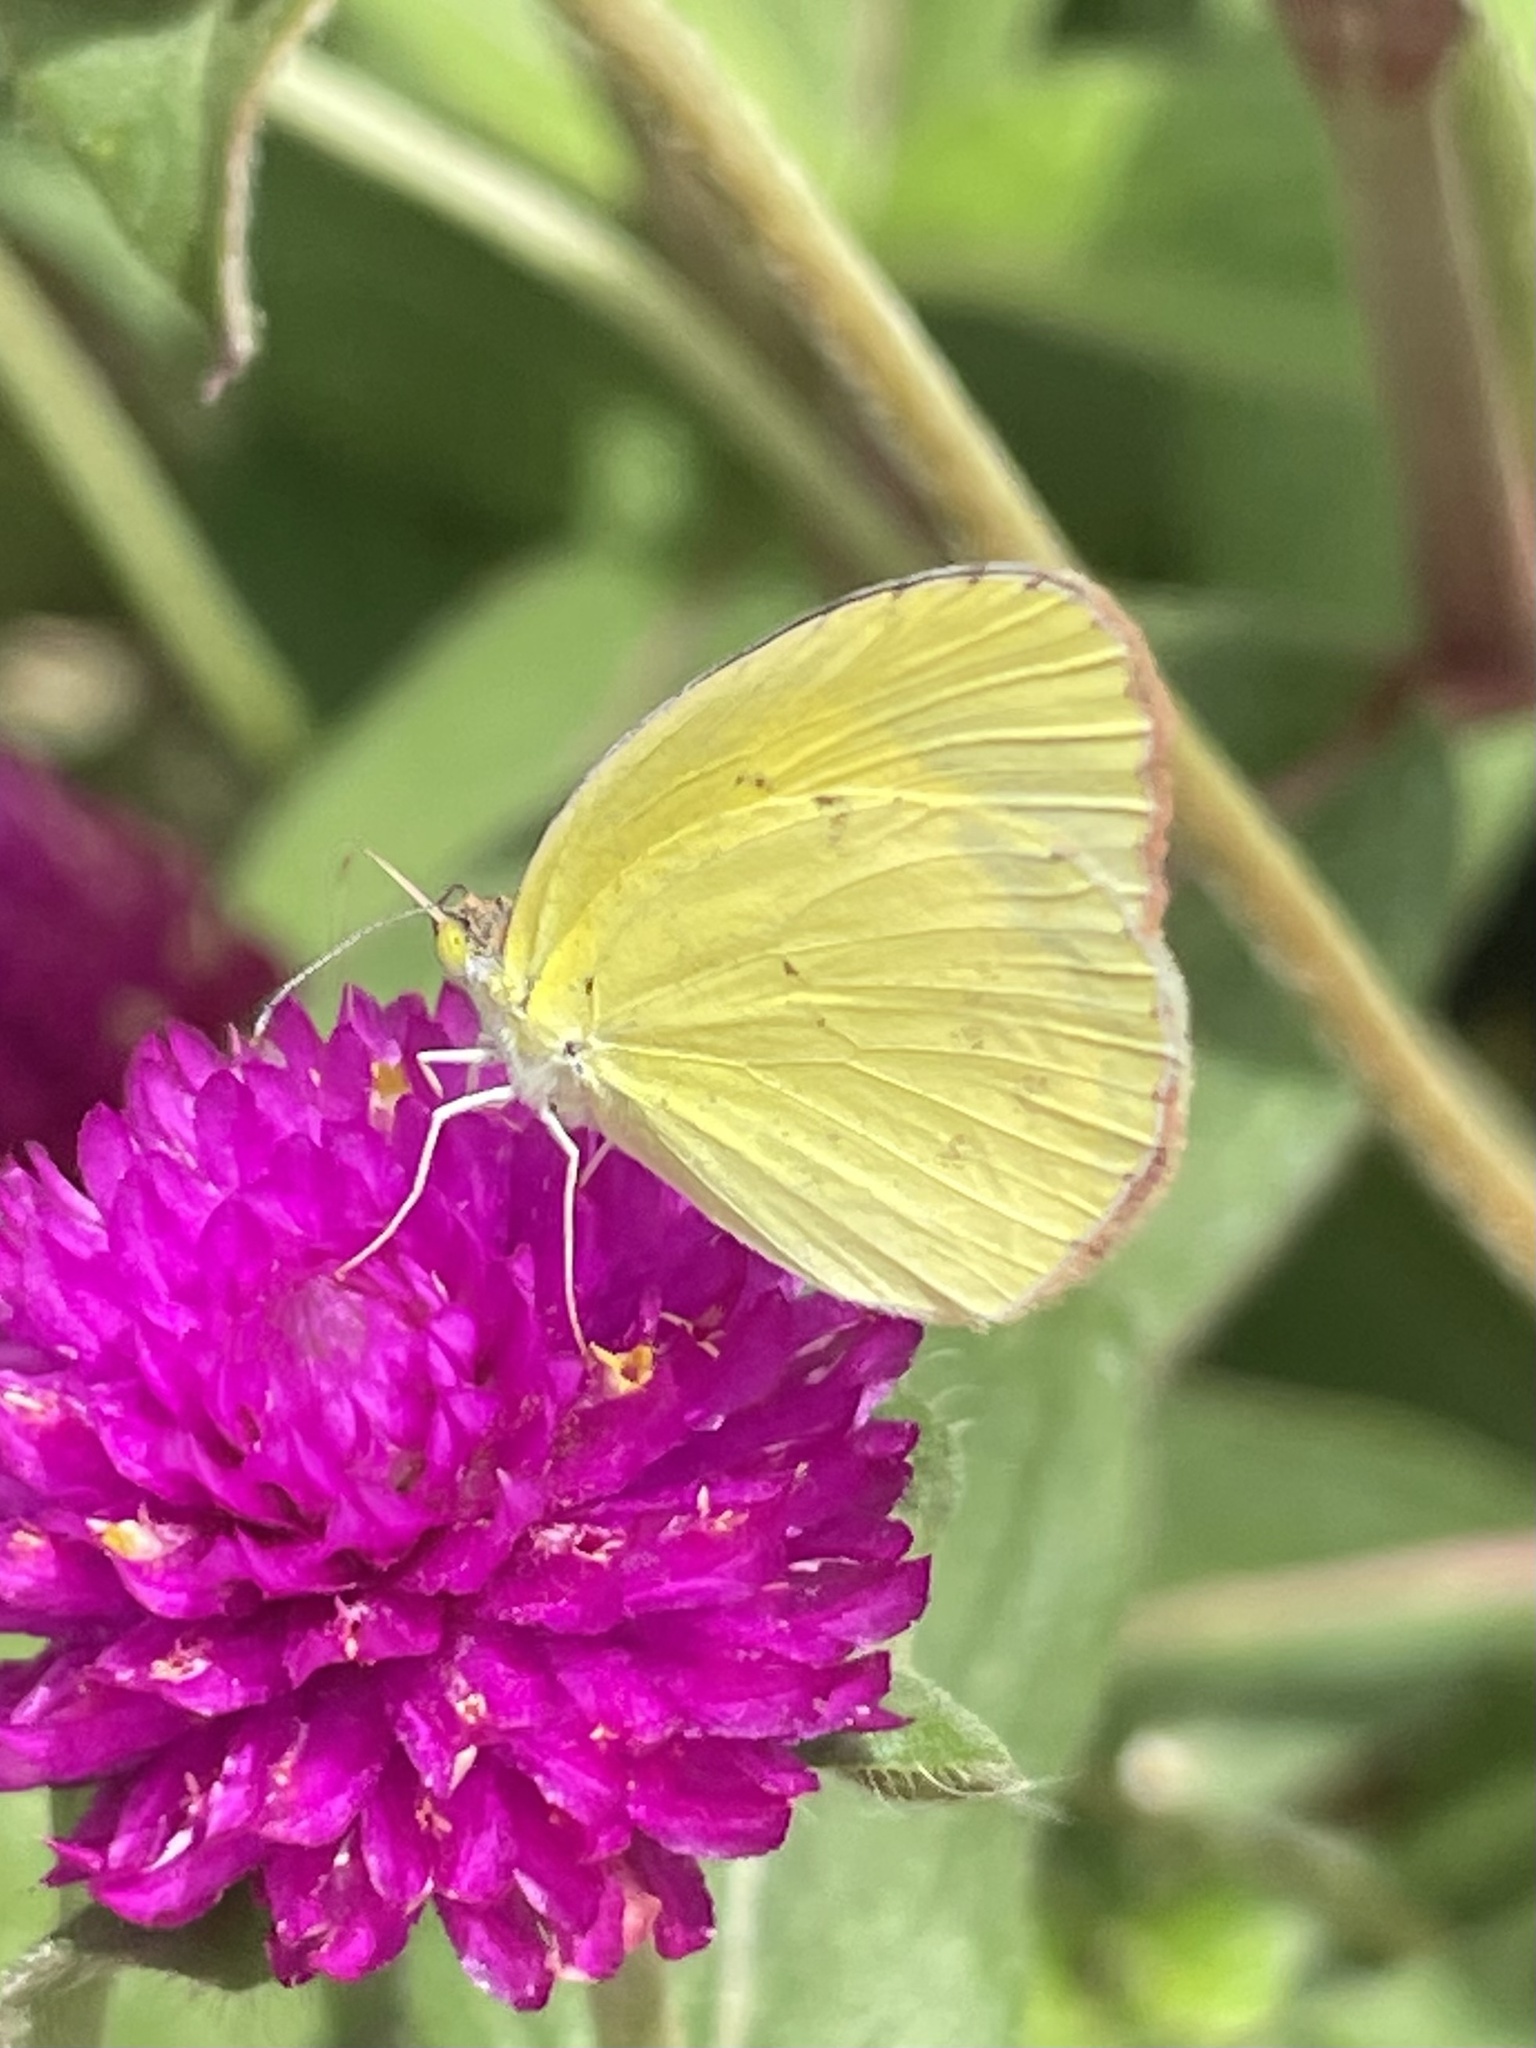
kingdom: Animalia
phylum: Arthropoda
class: Insecta
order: Lepidoptera
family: Pieridae
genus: Pyrisitia
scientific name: Pyrisitia lisa
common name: Little yellow
